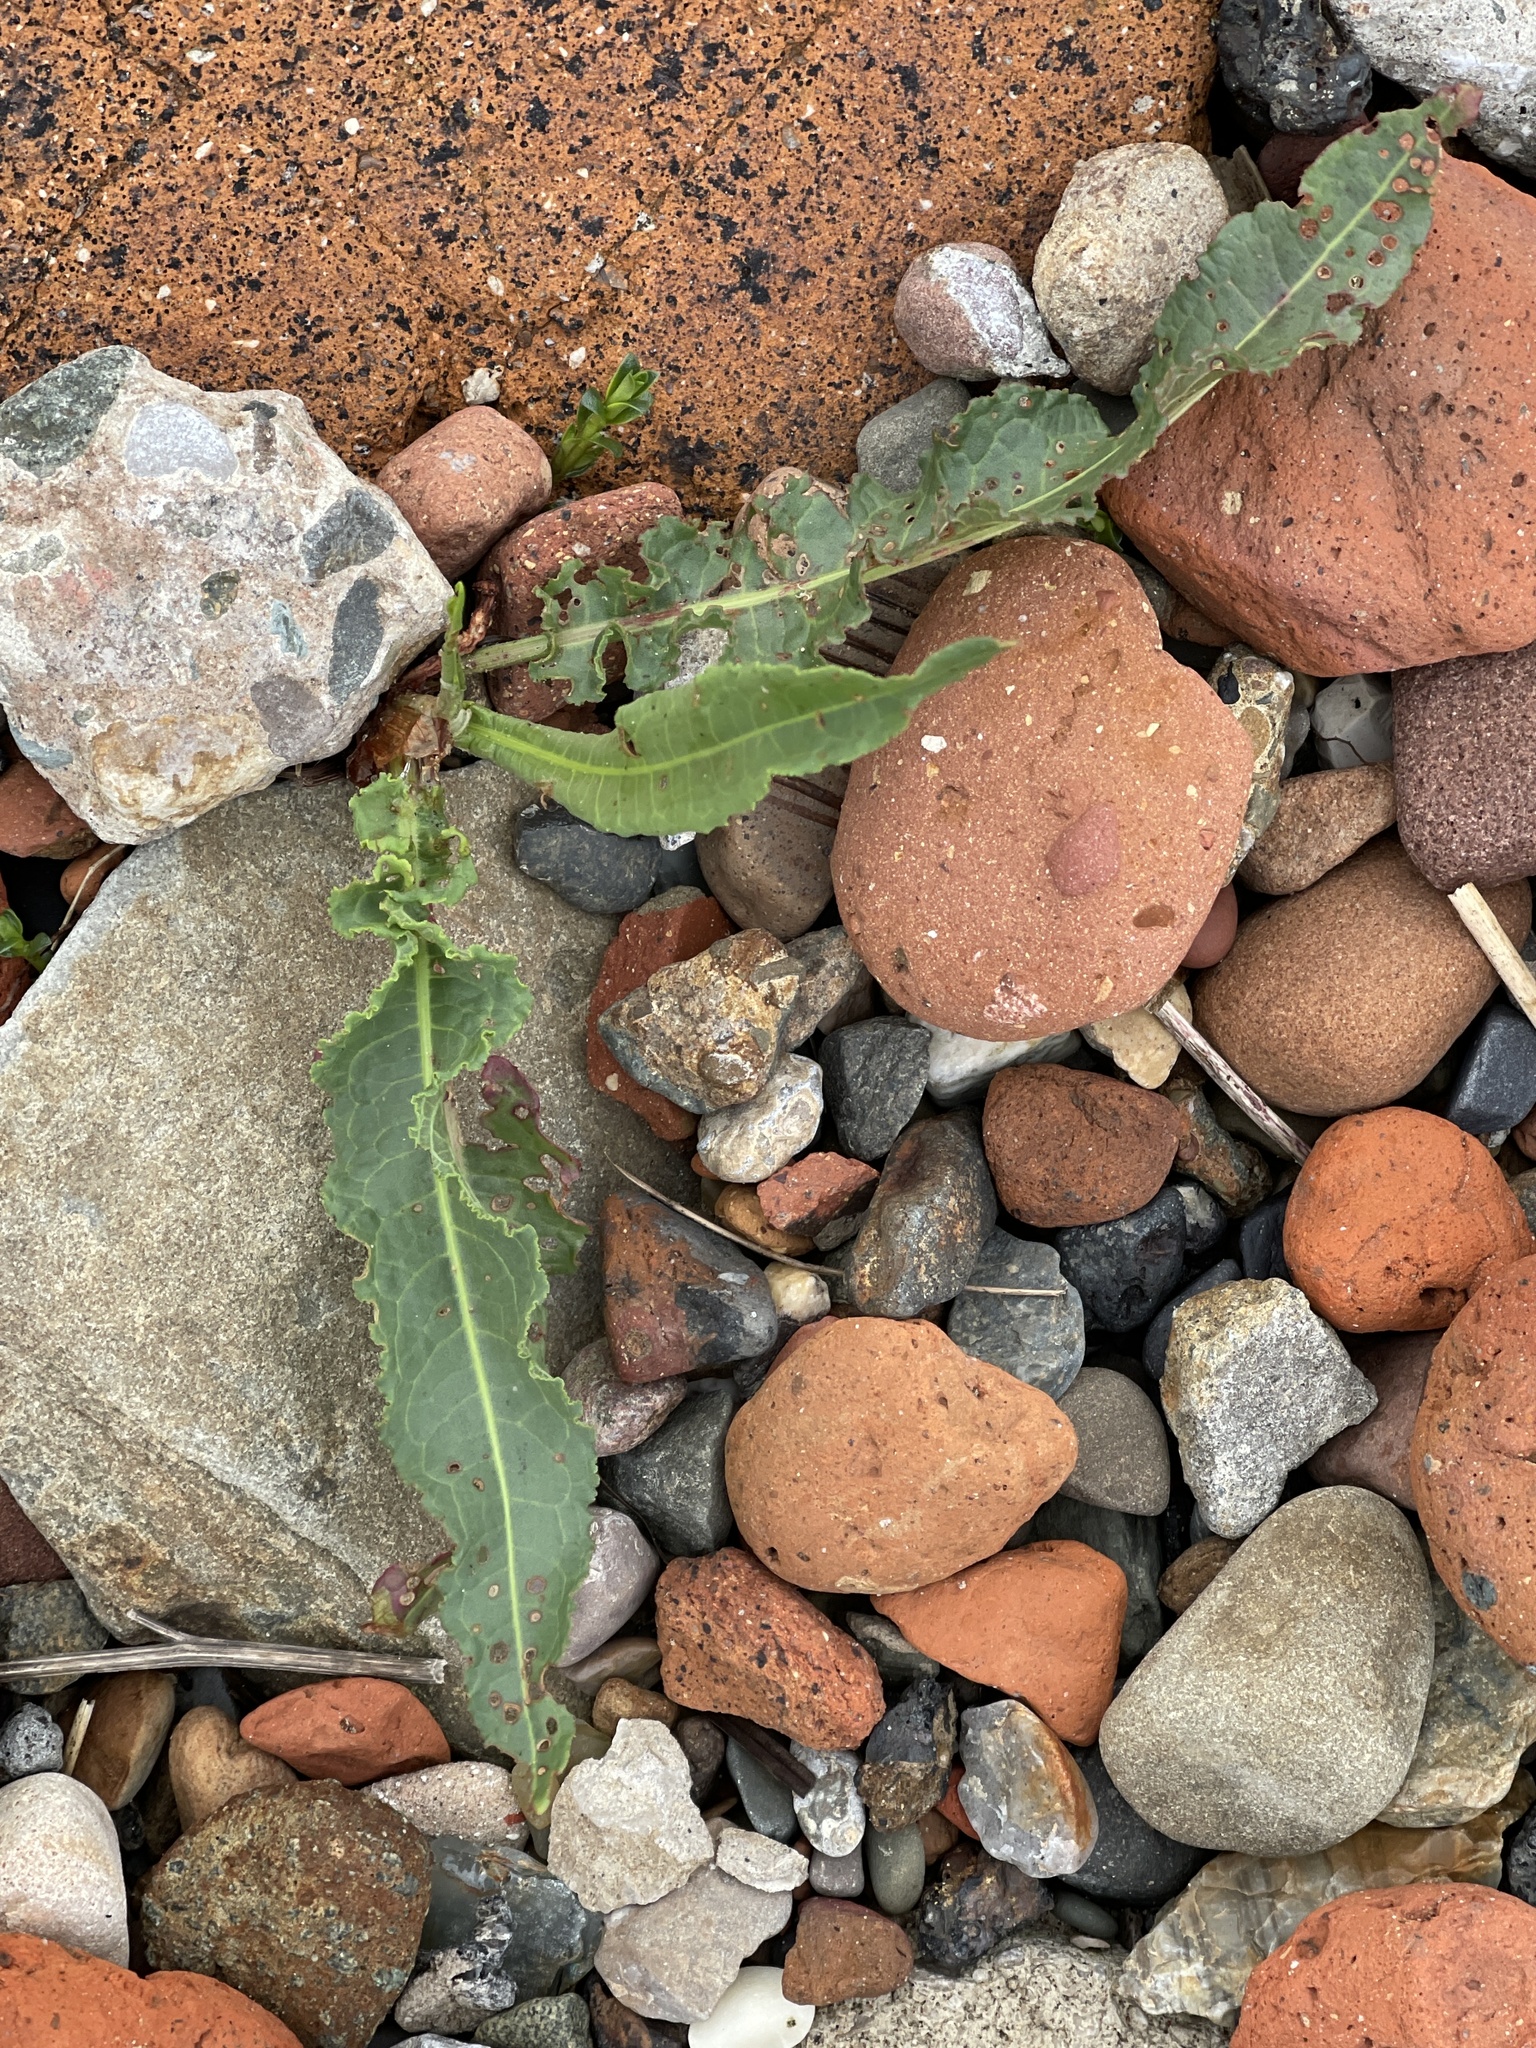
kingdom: Plantae
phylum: Tracheophyta
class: Magnoliopsida
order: Caryophyllales
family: Polygonaceae
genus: Rumex
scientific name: Rumex crispus
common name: Curled dock
